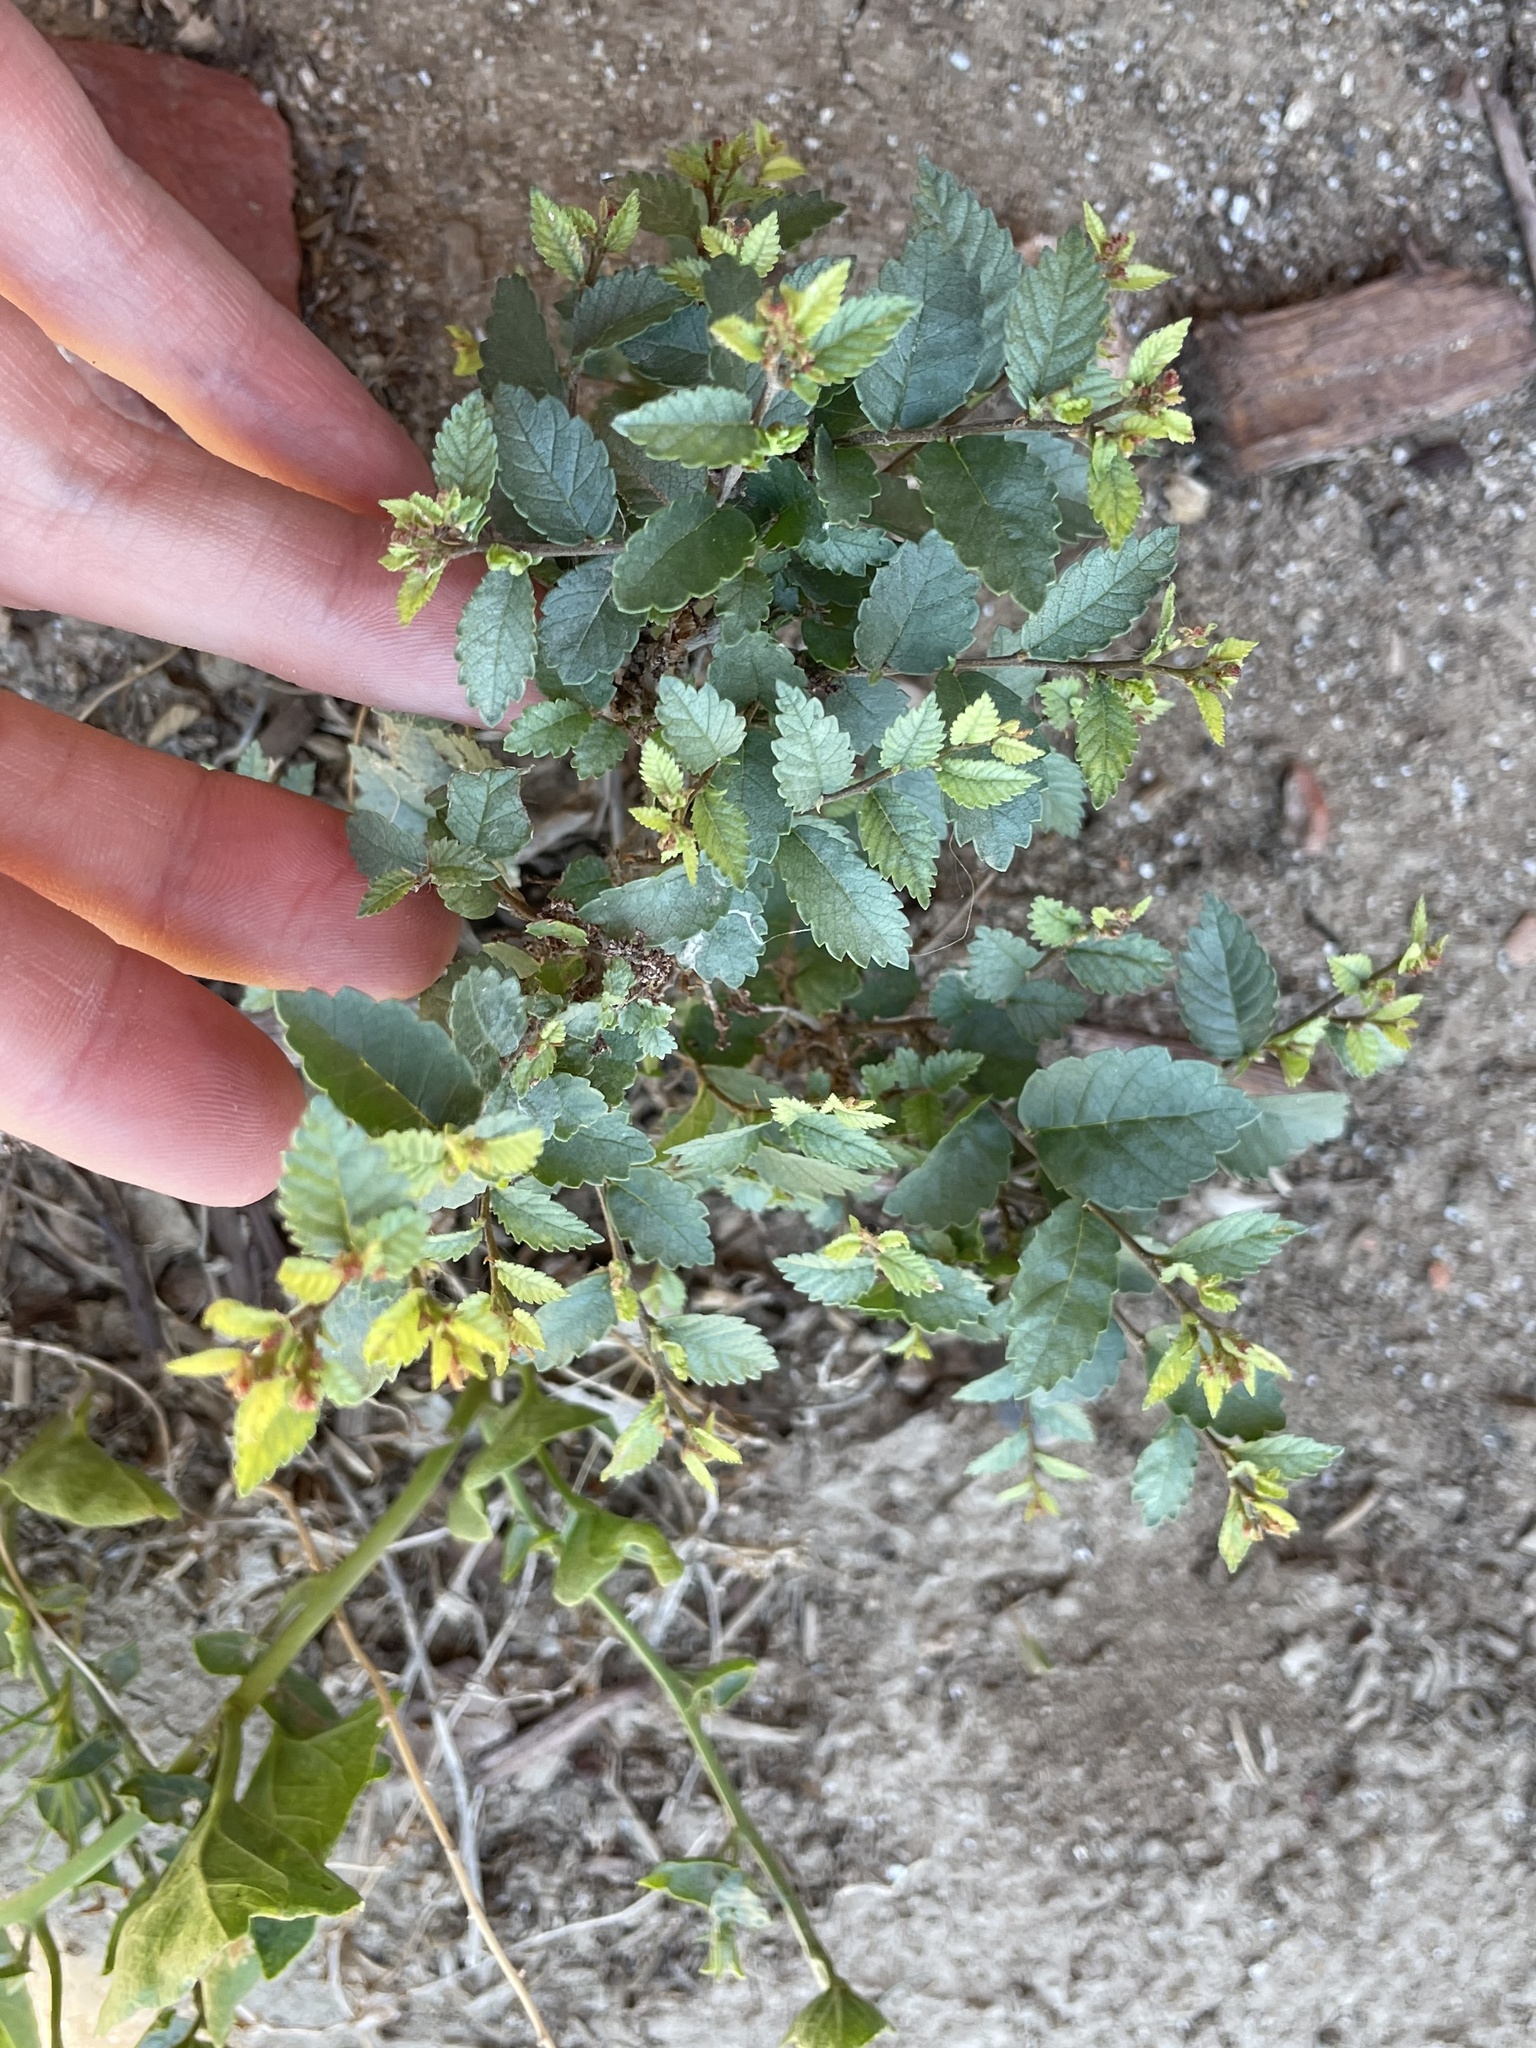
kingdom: Plantae
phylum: Tracheophyta
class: Magnoliopsida
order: Rosales
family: Ulmaceae
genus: Ulmus
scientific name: Ulmus pumila
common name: Siberian elm
